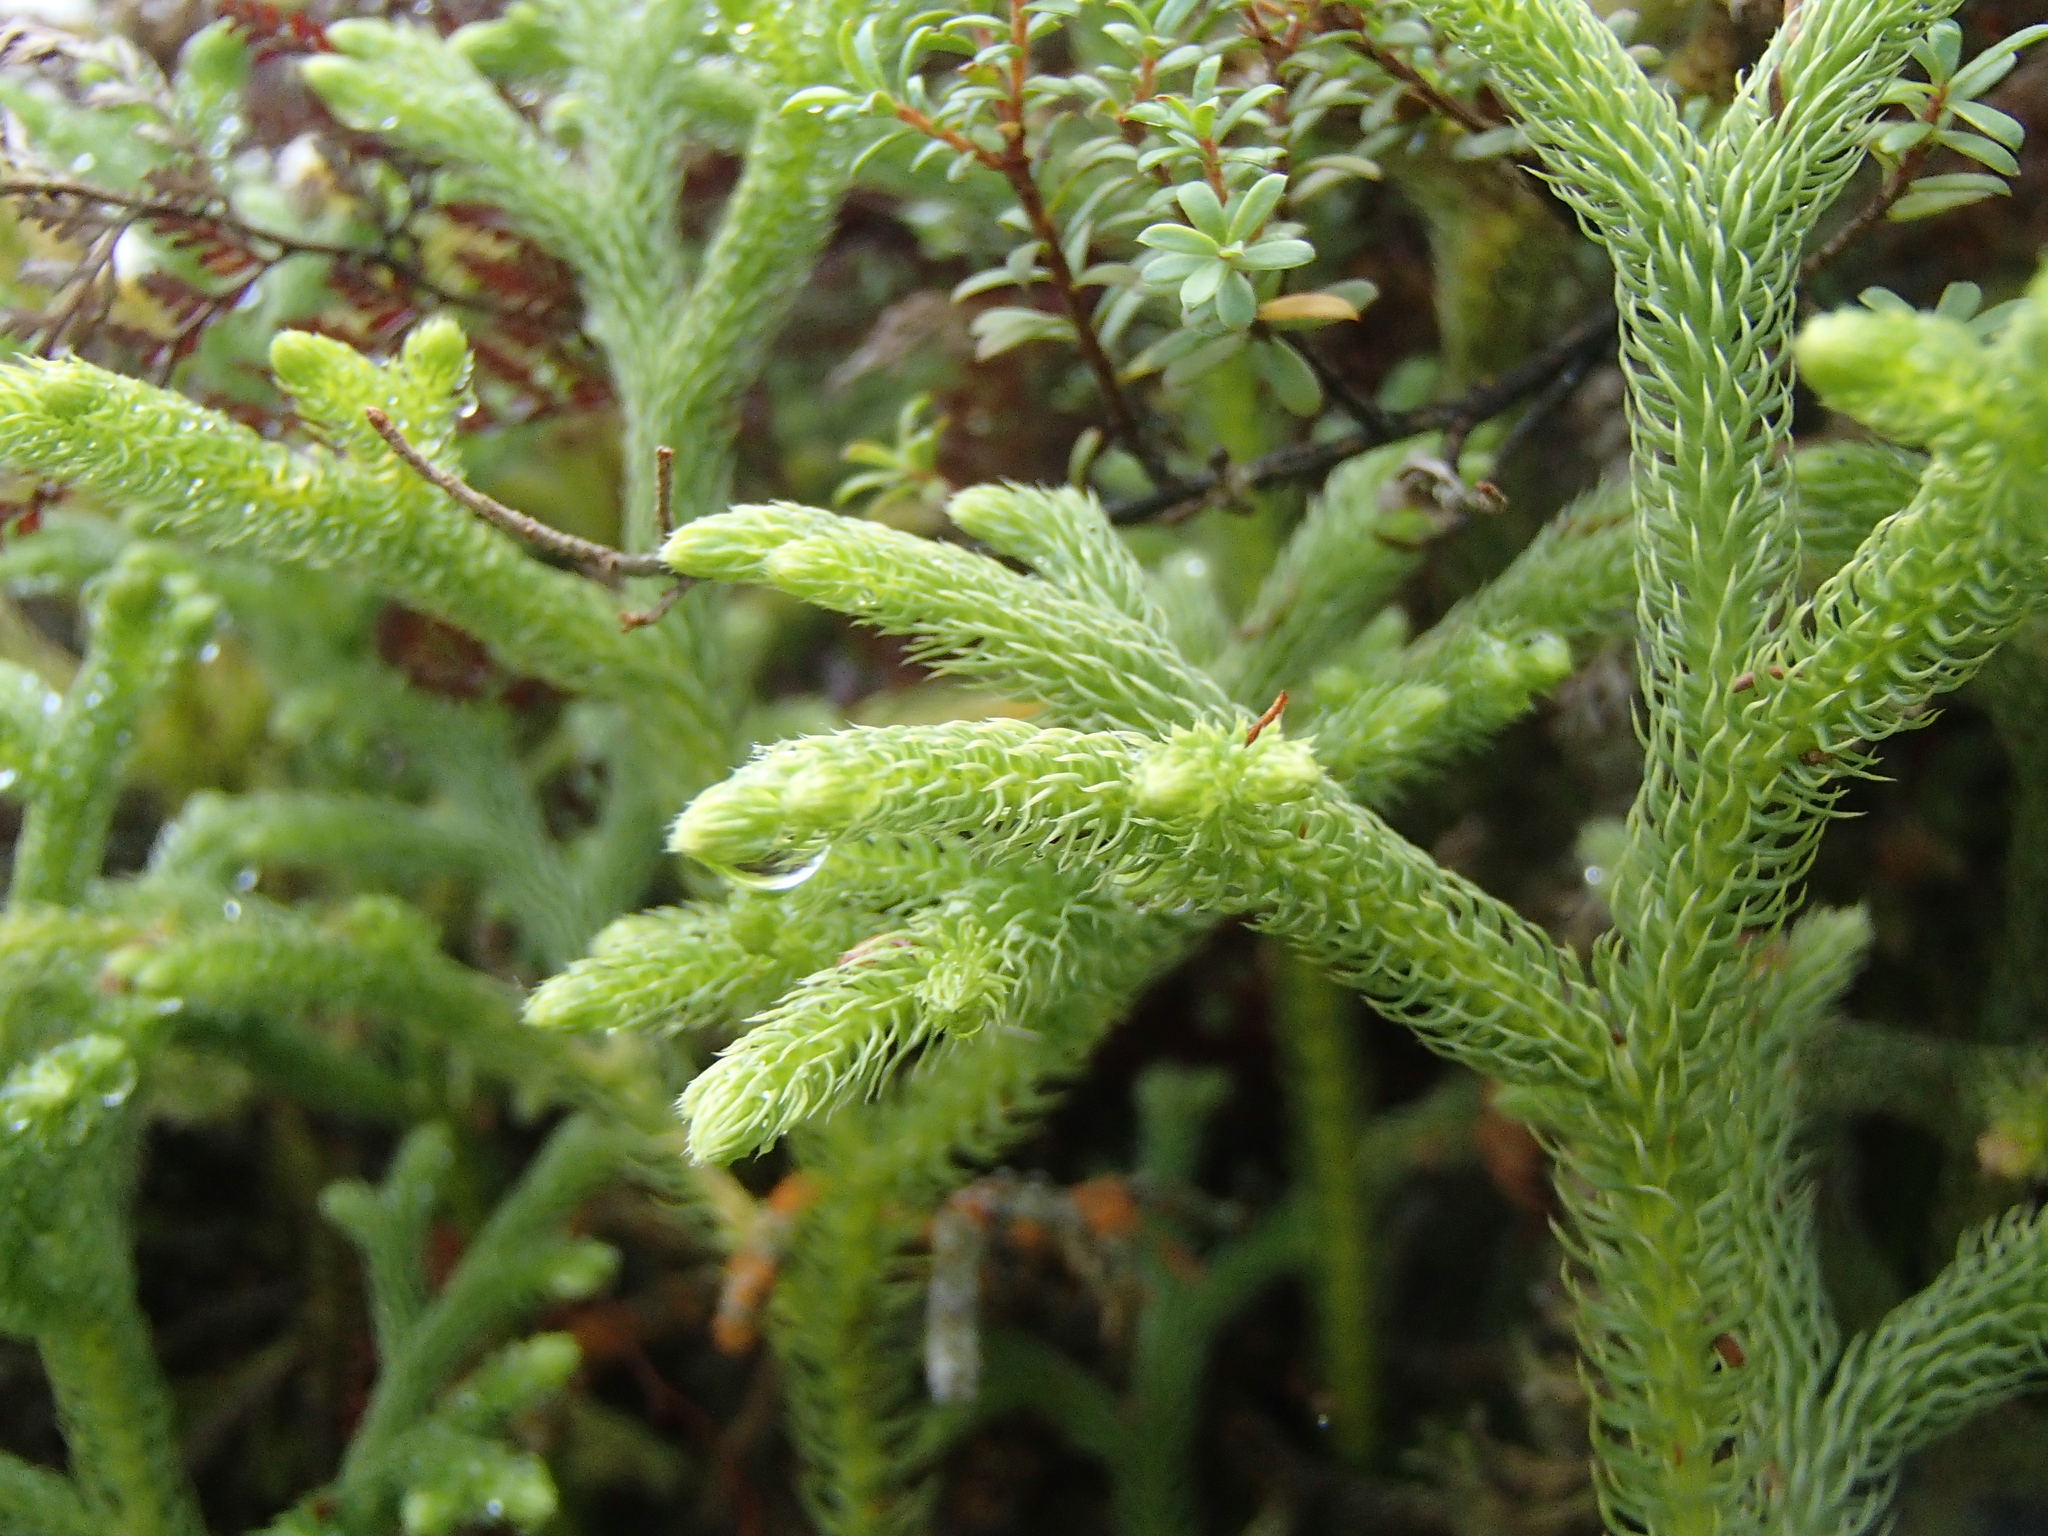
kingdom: Plantae
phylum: Tracheophyta
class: Lycopodiopsida
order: Lycopodiales
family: Lycopodiaceae
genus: Palhinhaea
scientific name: Palhinhaea cernua
